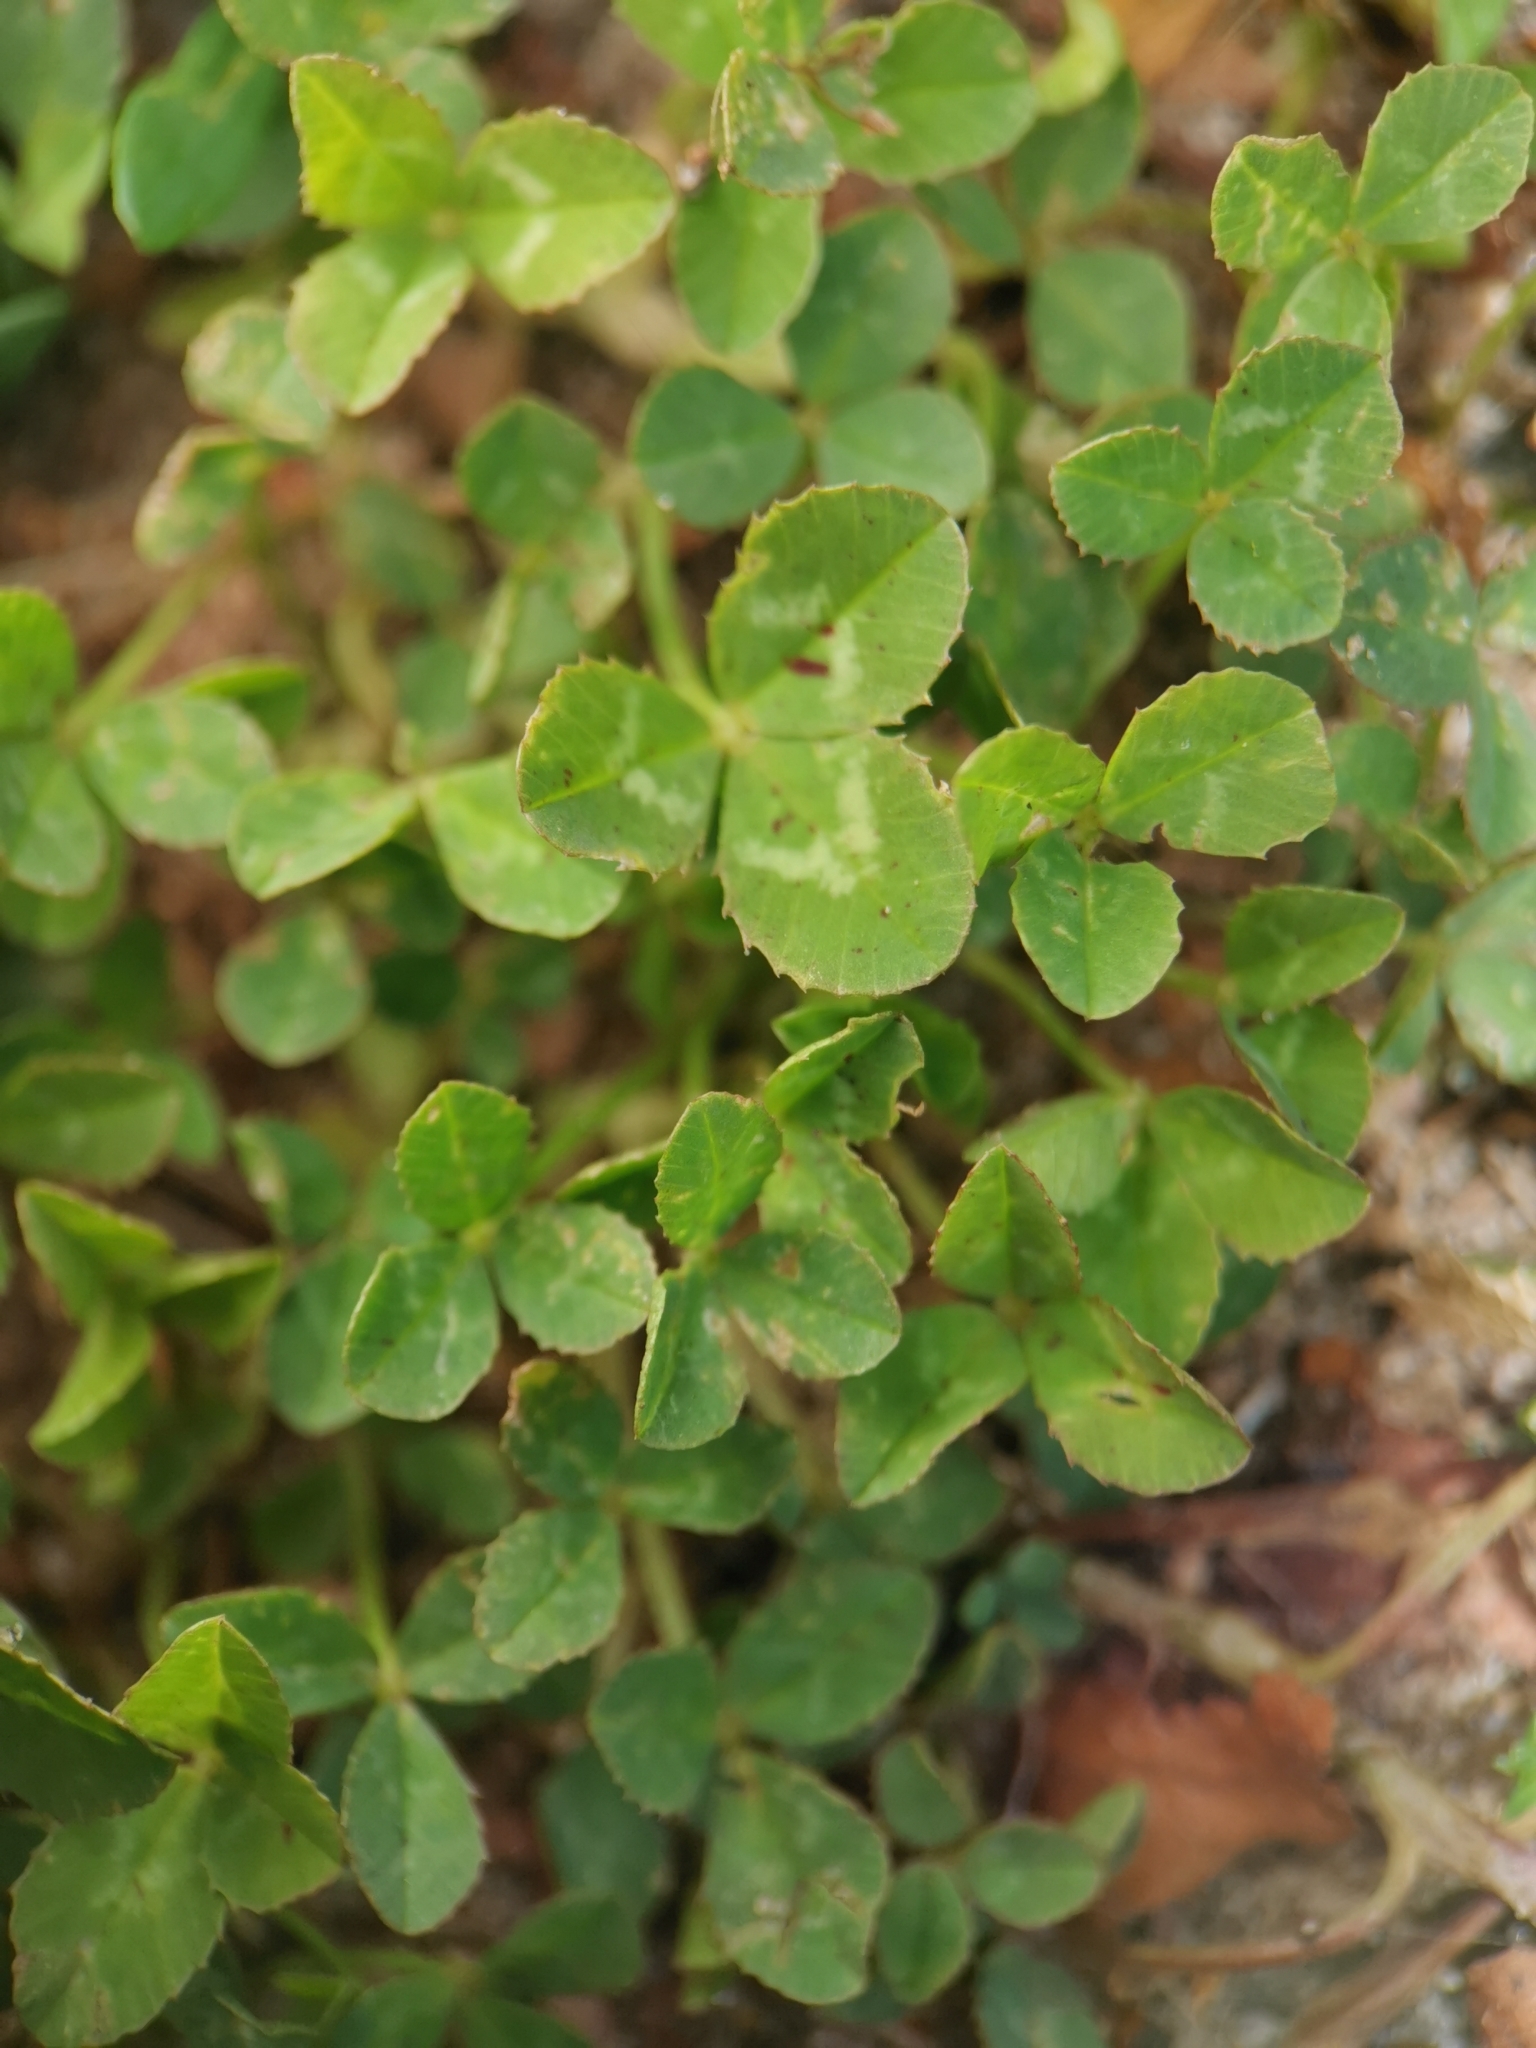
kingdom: Plantae
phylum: Tracheophyta
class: Magnoliopsida
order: Fabales
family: Fabaceae
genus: Trifolium
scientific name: Trifolium repens
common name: White clover
